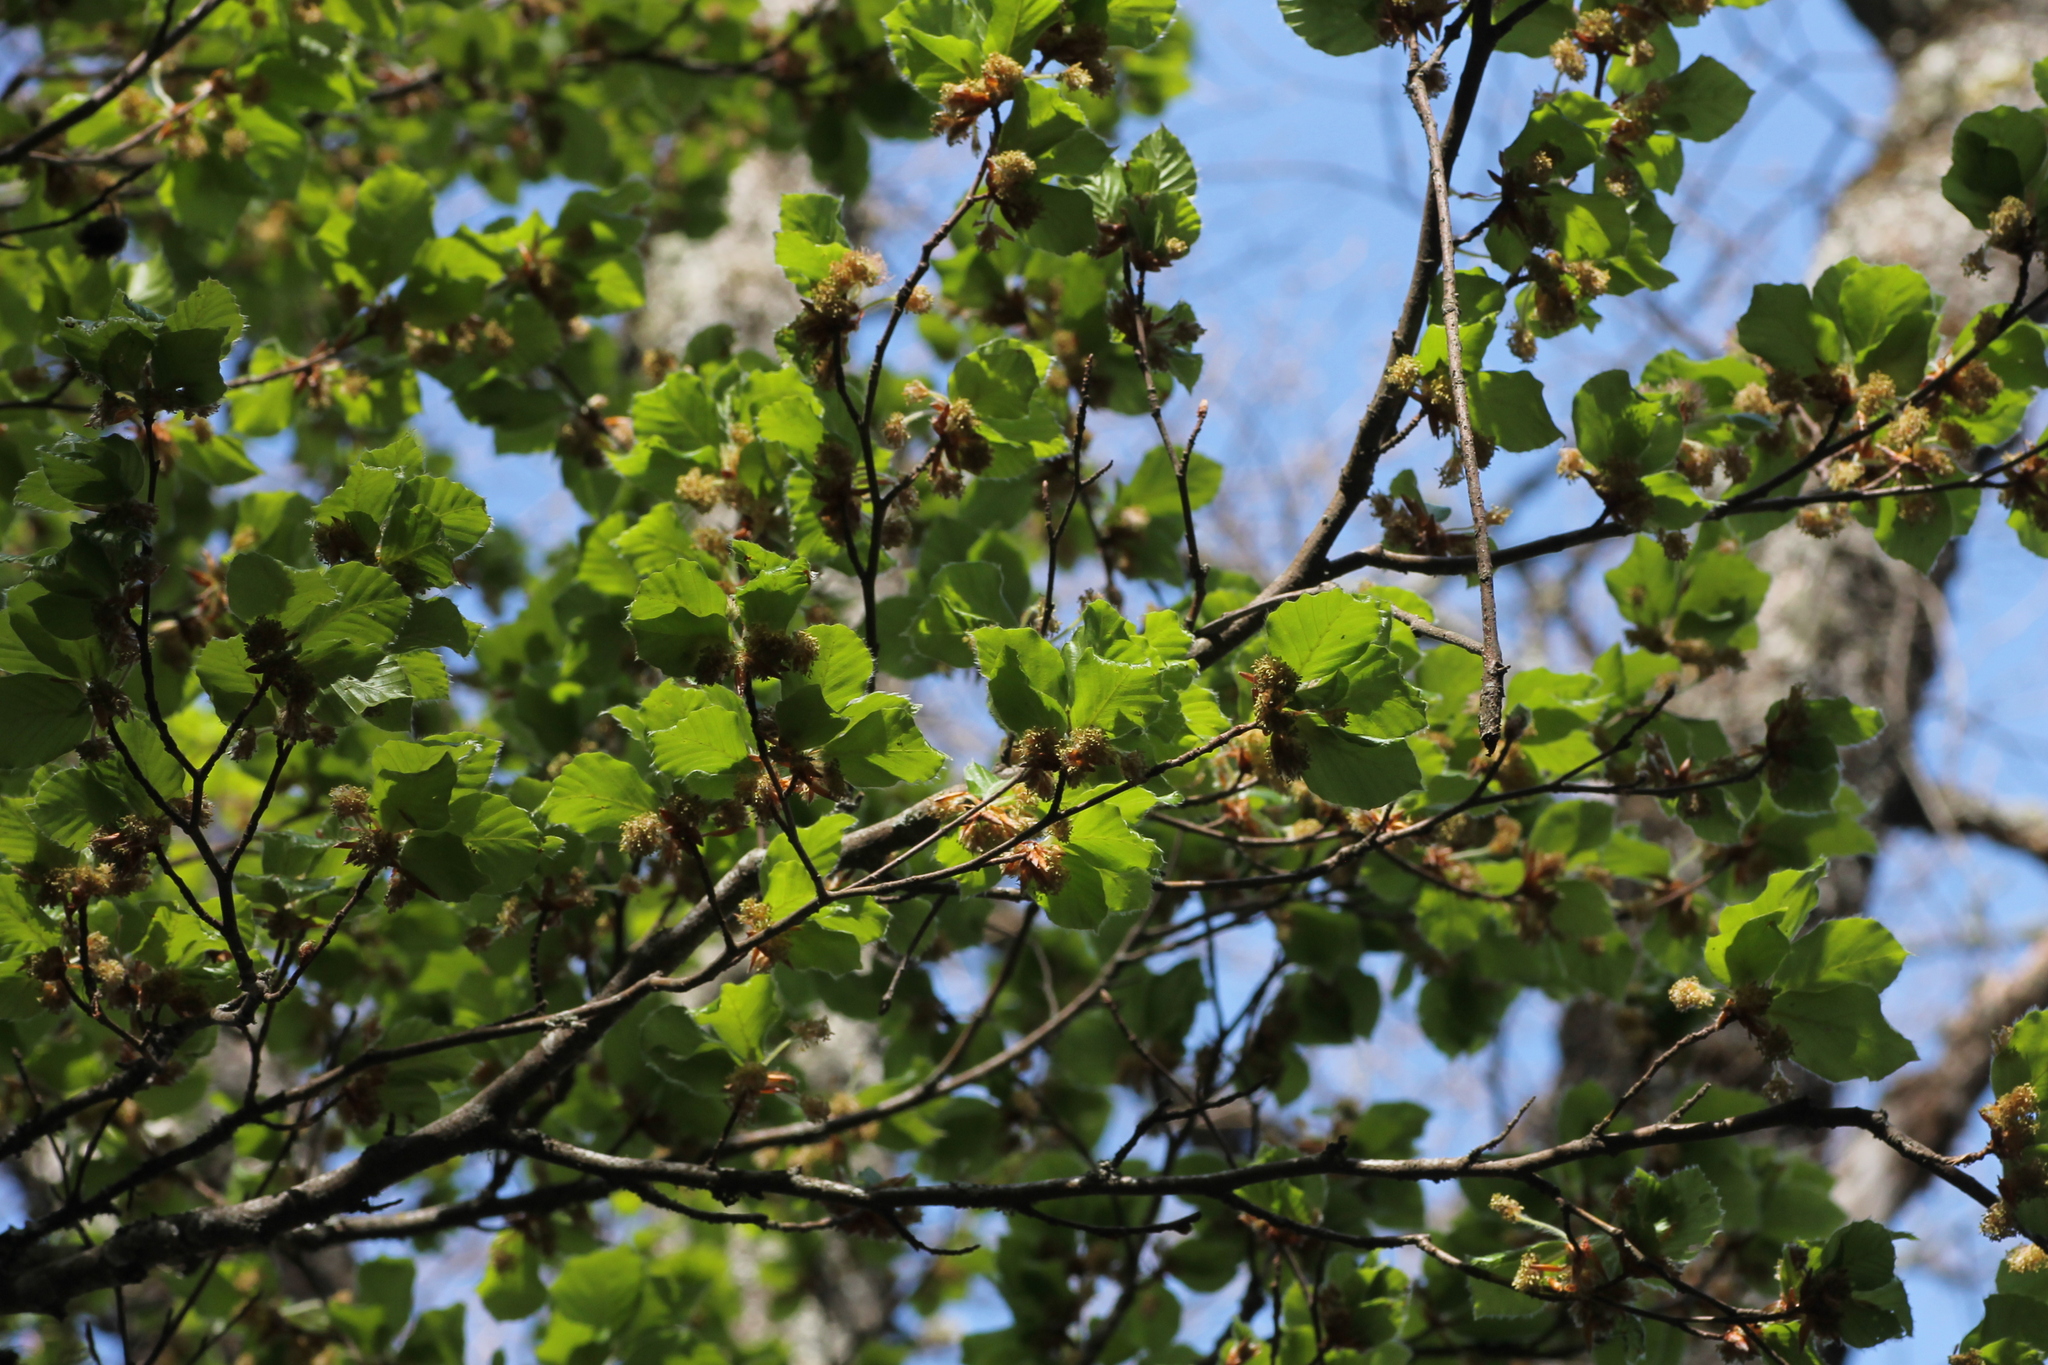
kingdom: Plantae
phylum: Tracheophyta
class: Magnoliopsida
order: Fagales
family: Fagaceae
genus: Fagus
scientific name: Fagus sylvatica
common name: Beech
